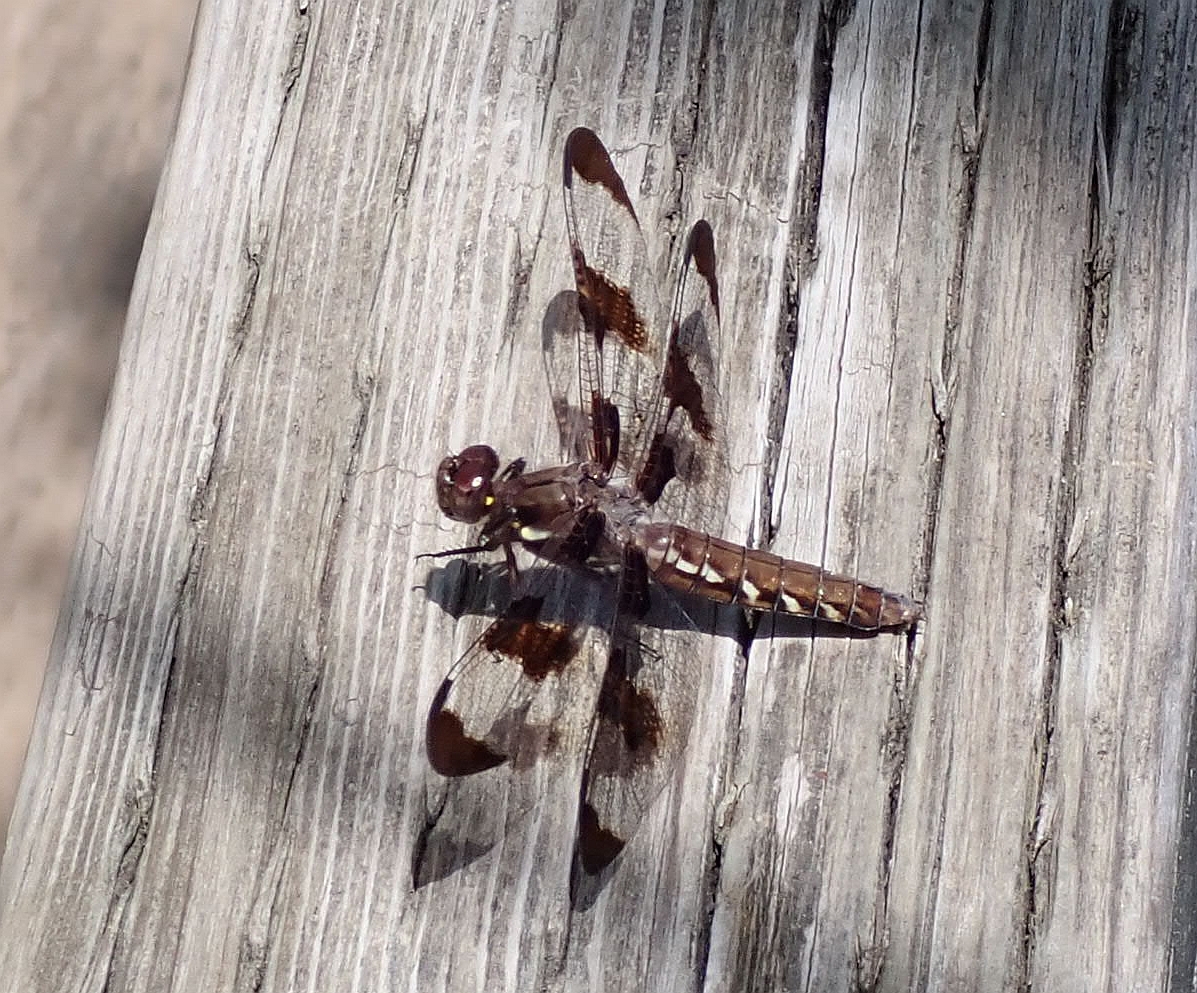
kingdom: Animalia
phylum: Arthropoda
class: Insecta
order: Odonata
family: Libellulidae
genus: Plathemis
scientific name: Plathemis lydia
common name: Common whitetail
